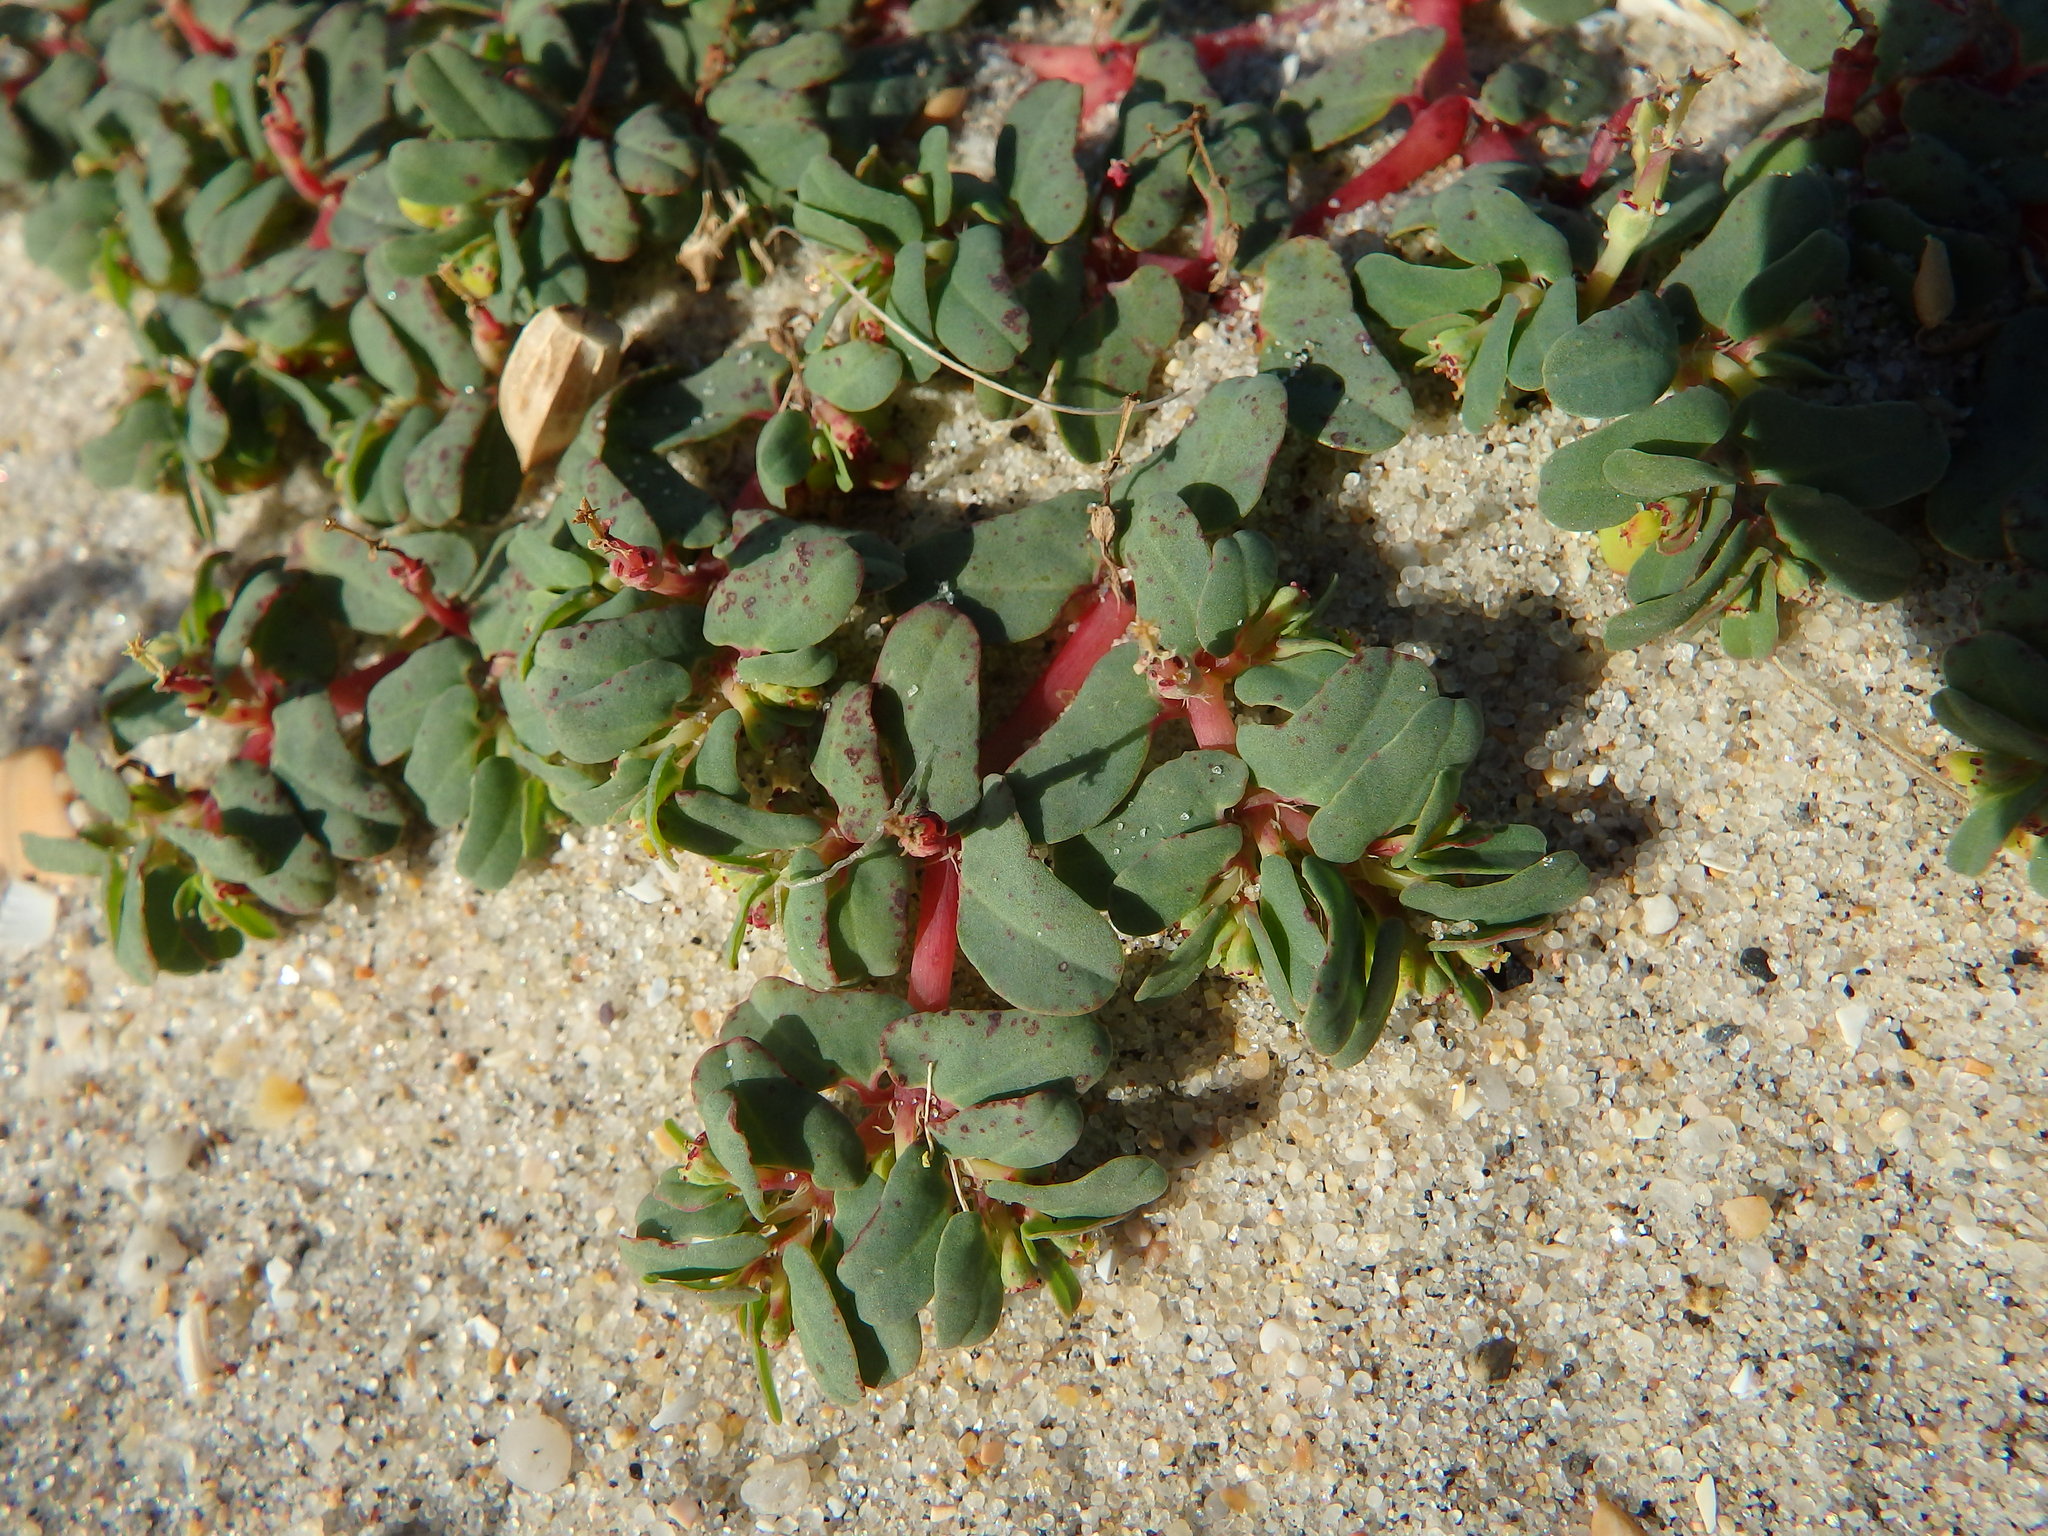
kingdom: Plantae
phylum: Tracheophyta
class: Magnoliopsida
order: Malpighiales
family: Euphorbiaceae
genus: Euphorbia
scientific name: Euphorbia peplis
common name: Purple spurge
